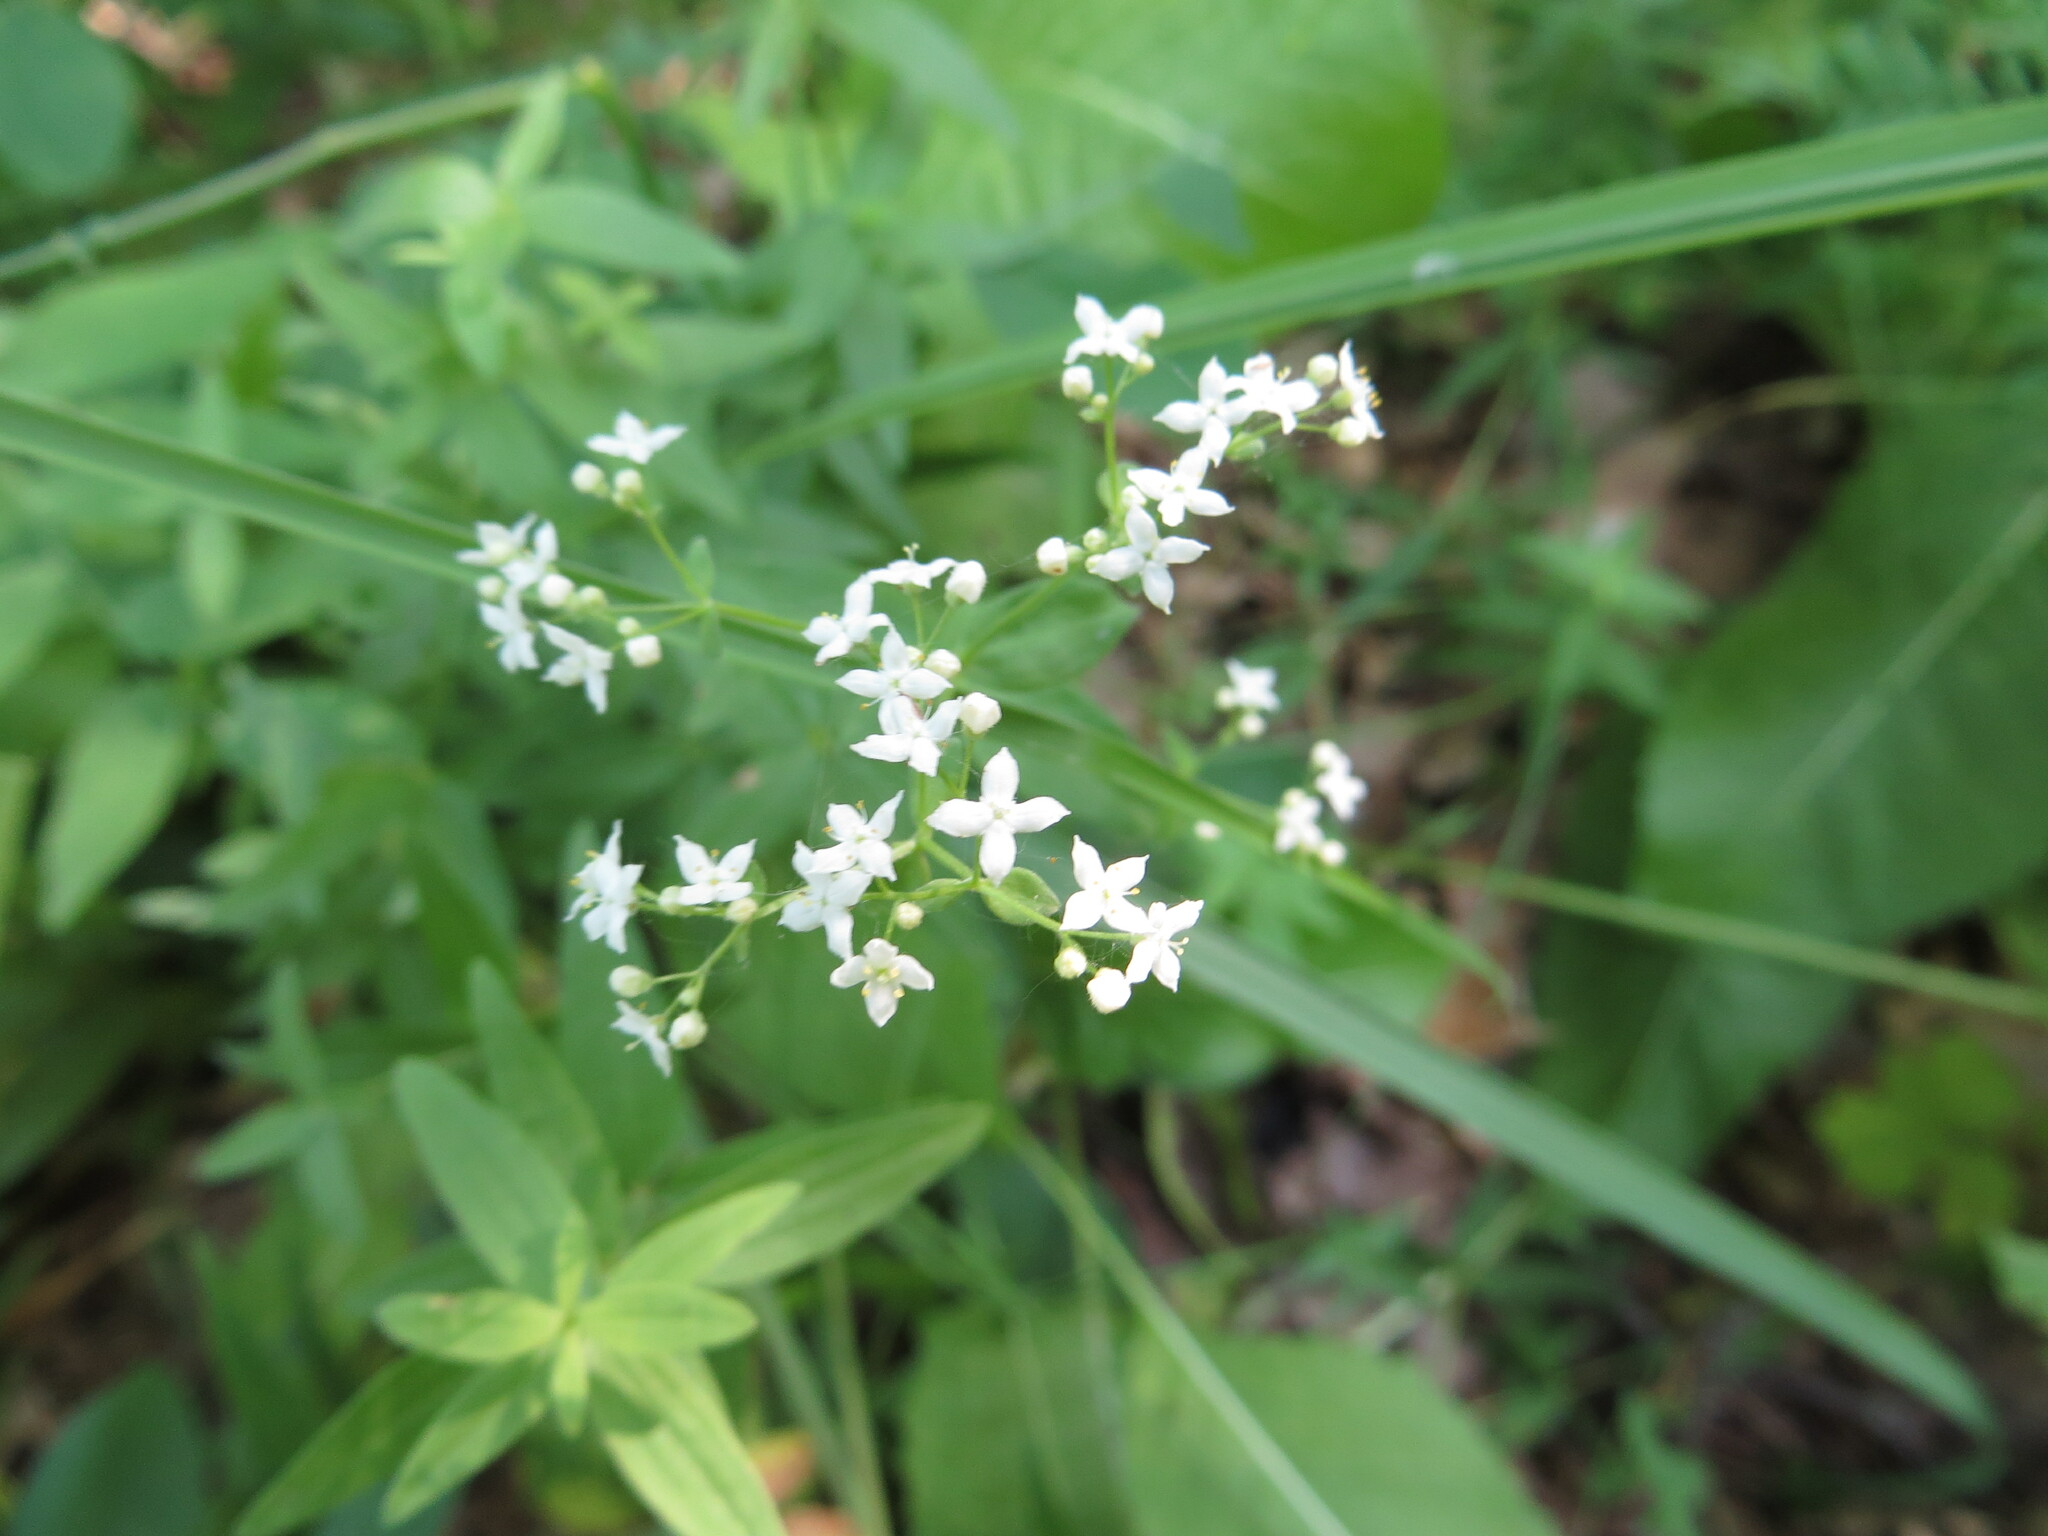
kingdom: Plantae
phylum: Tracheophyta
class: Magnoliopsida
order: Gentianales
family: Rubiaceae
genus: Galium
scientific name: Galium boreale
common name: Northern bedstraw
